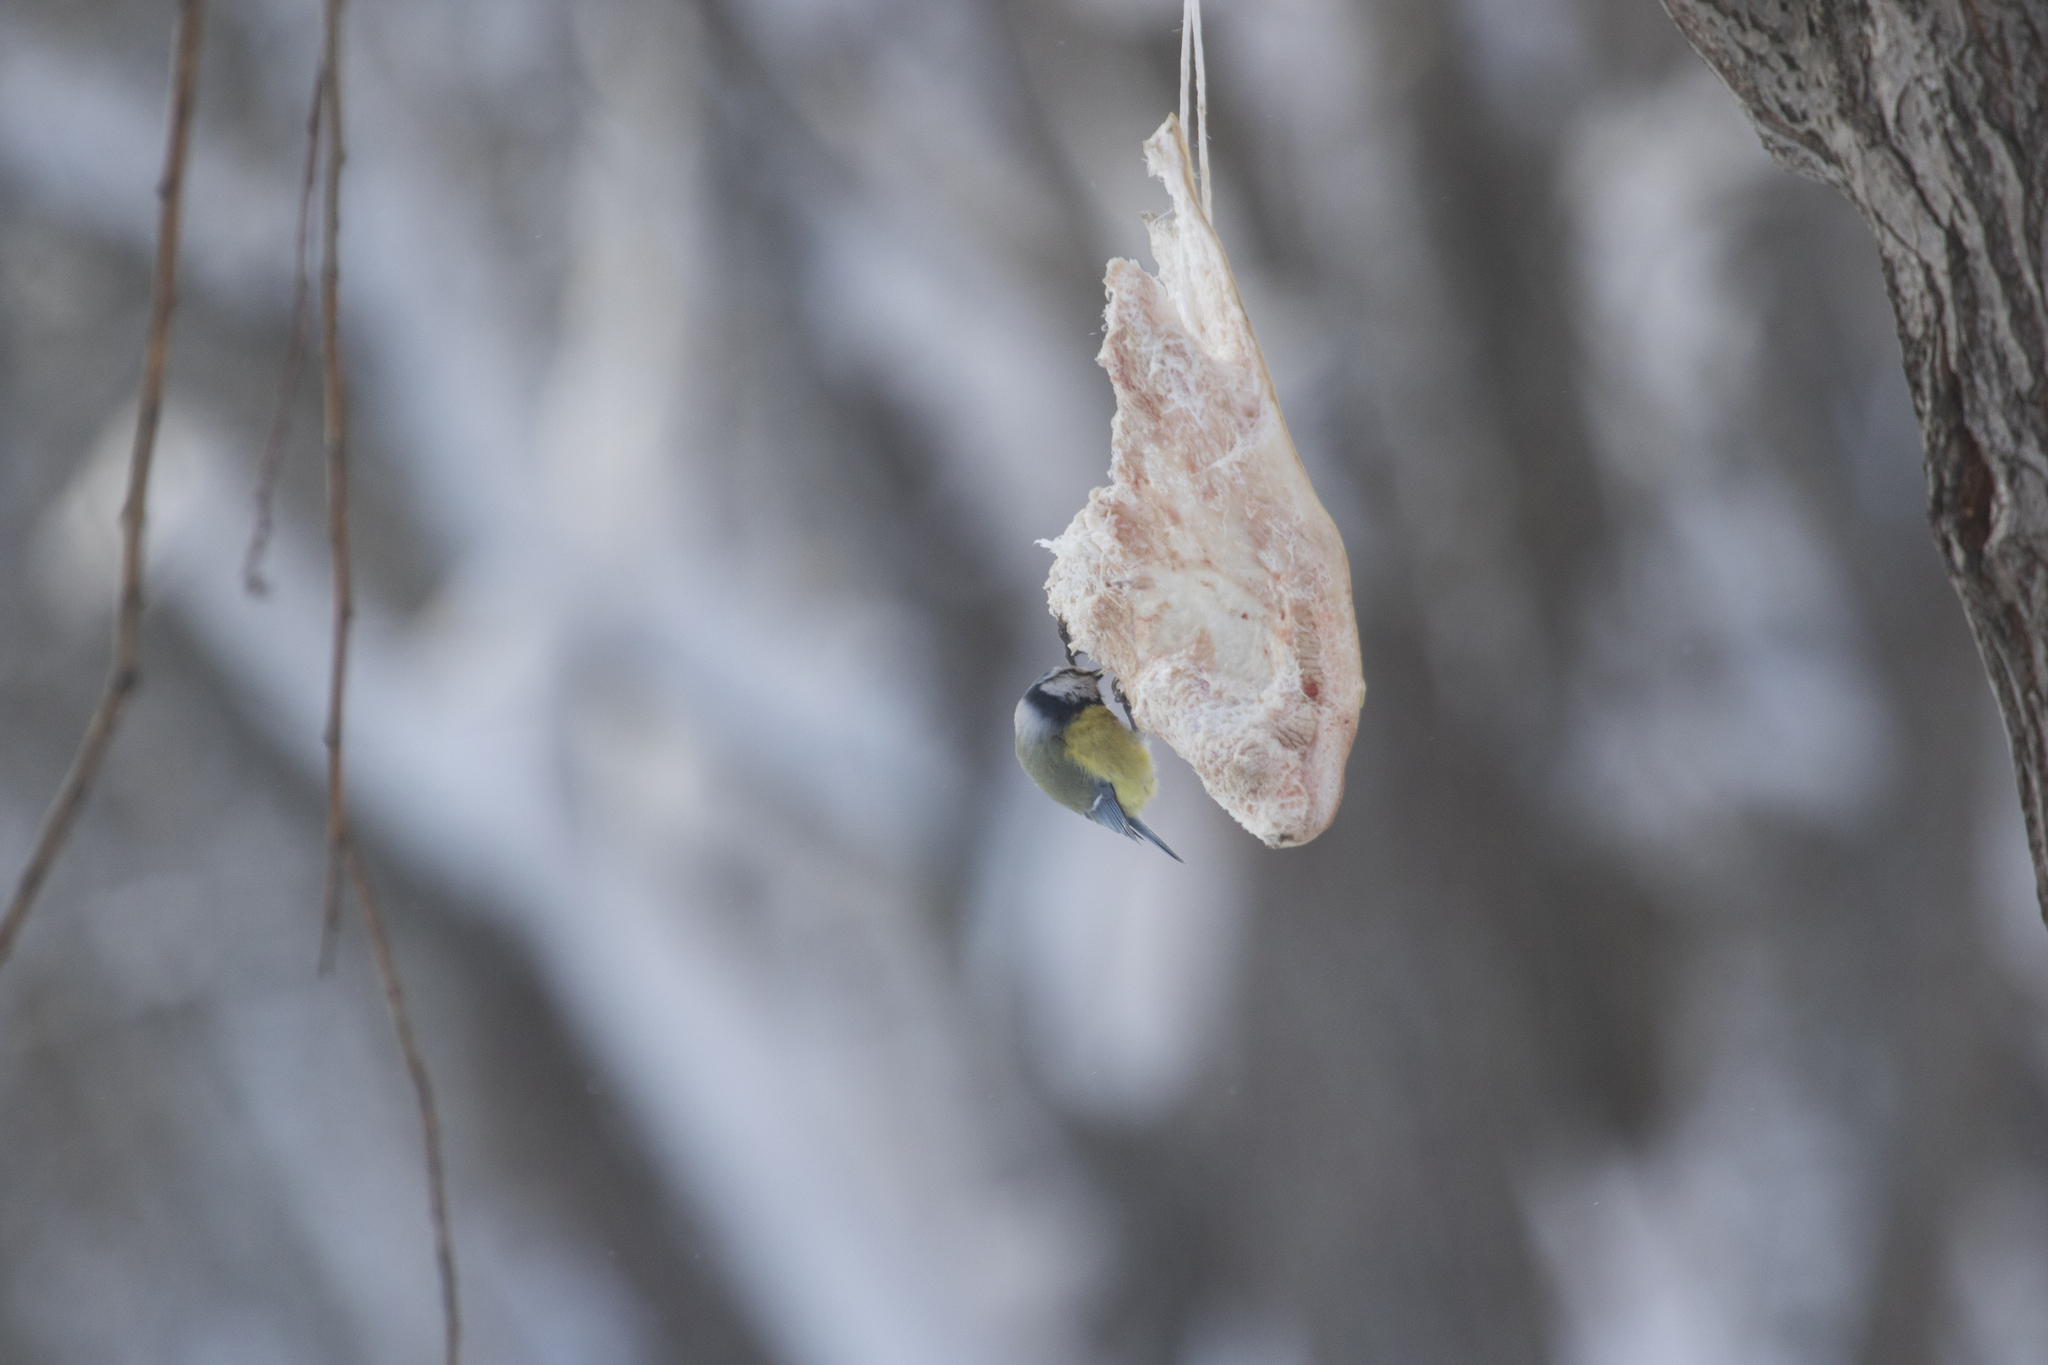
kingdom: Animalia
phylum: Chordata
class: Aves
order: Passeriformes
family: Paridae
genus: Cyanistes
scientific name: Cyanistes caeruleus
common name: Eurasian blue tit
